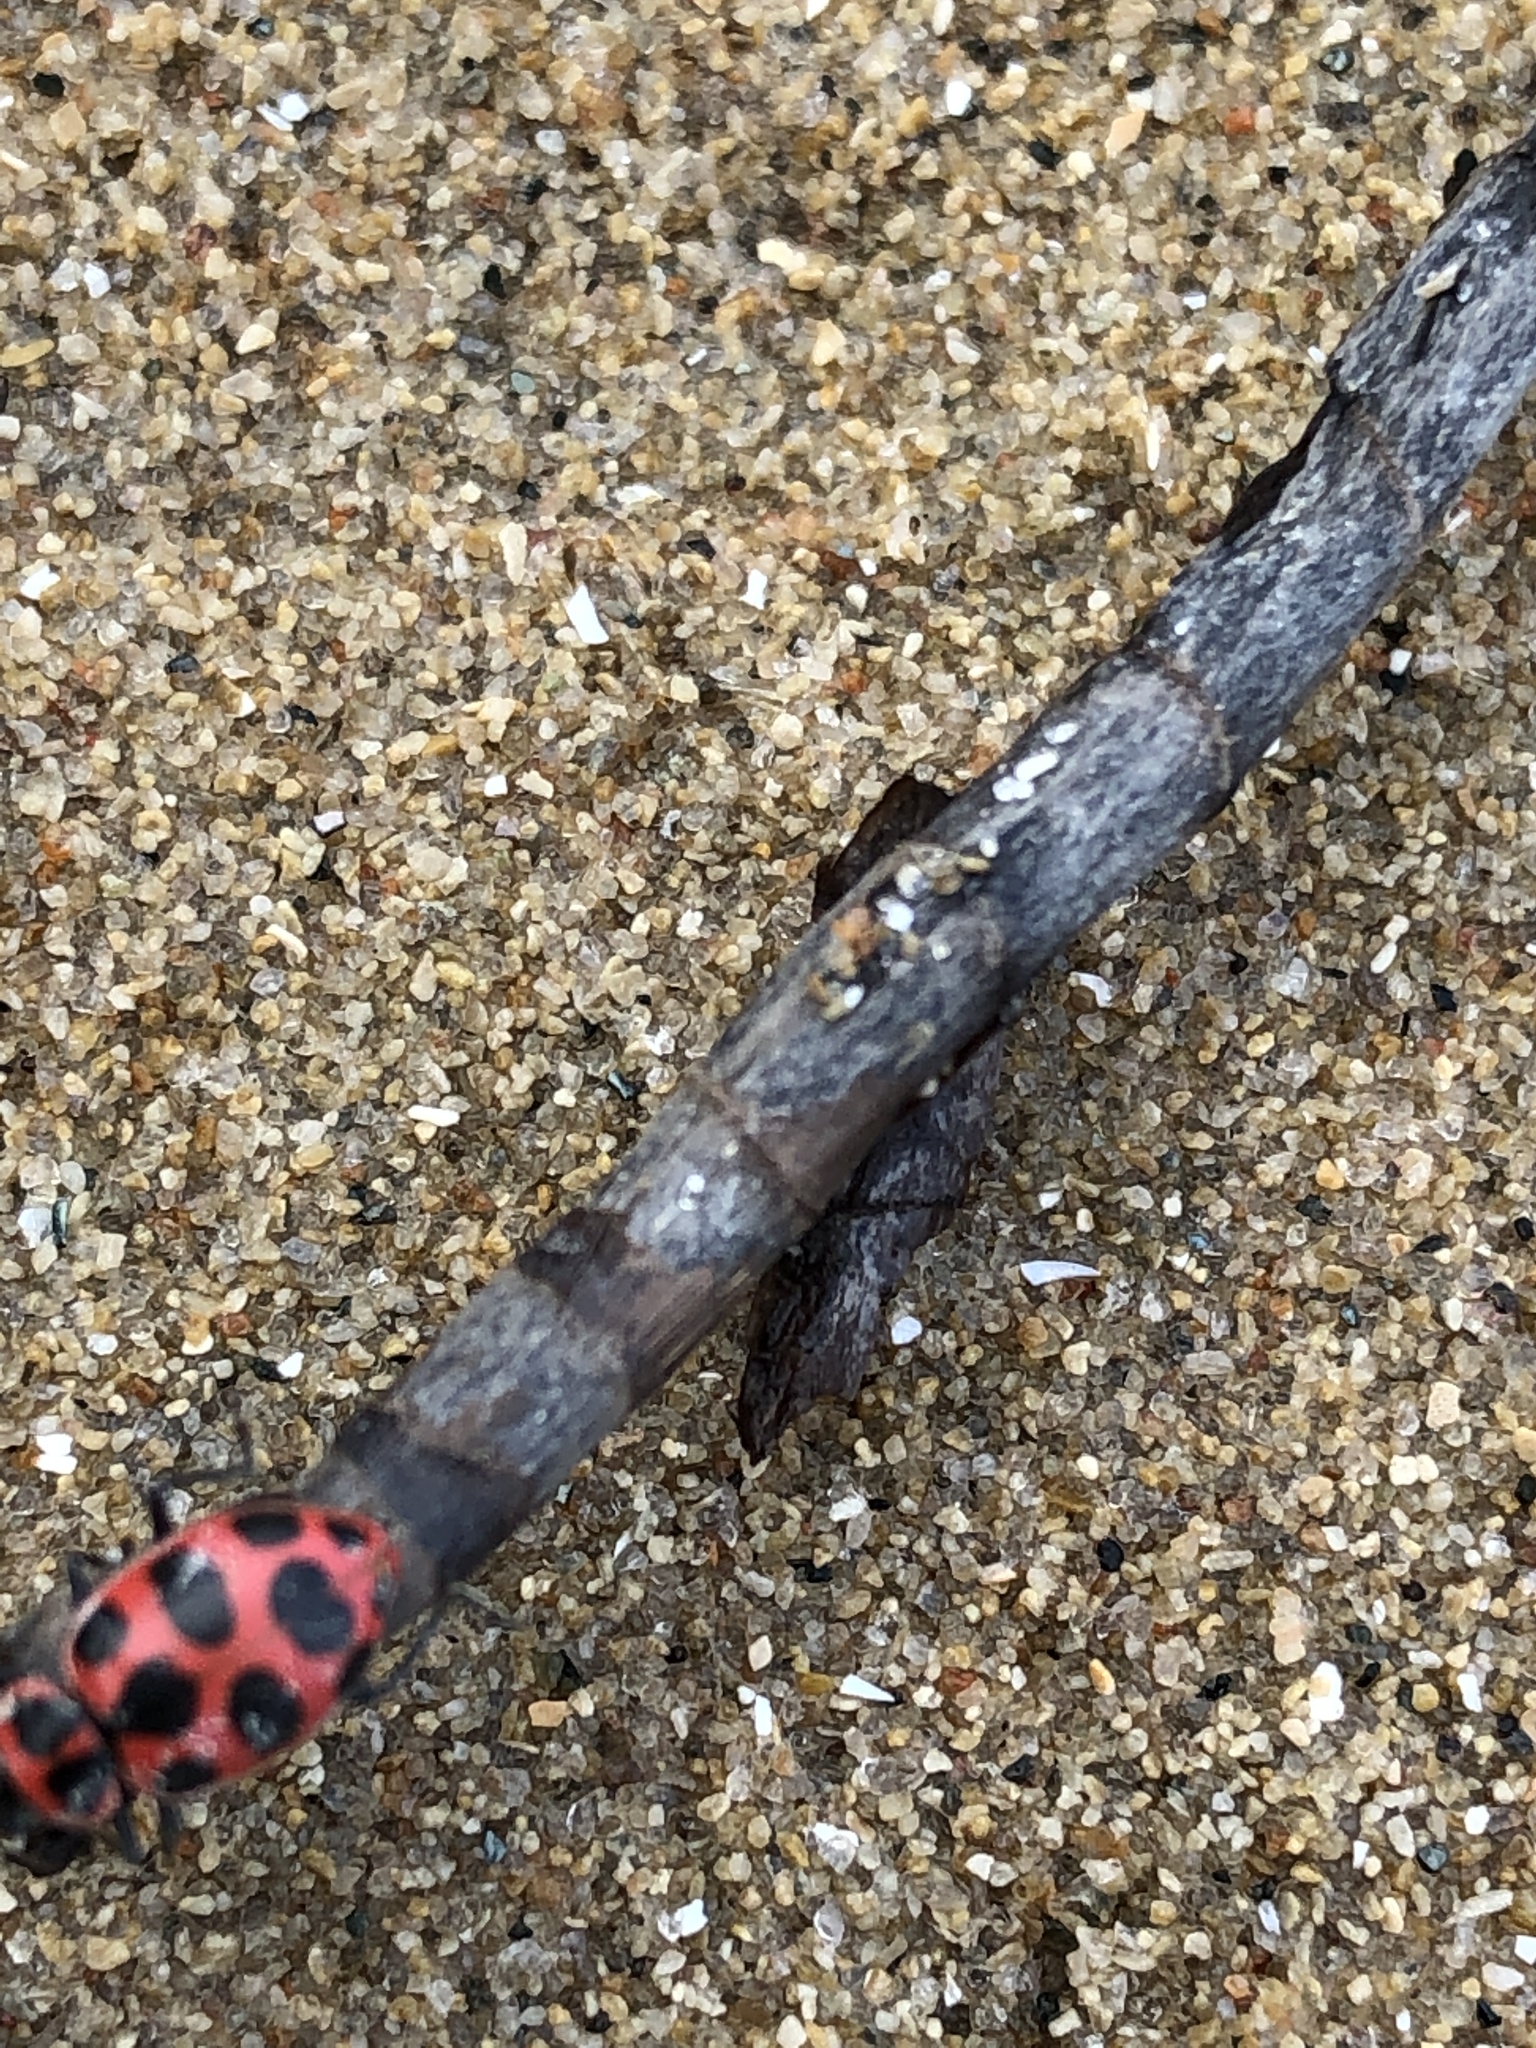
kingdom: Animalia
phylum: Arthropoda
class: Insecta
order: Coleoptera
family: Coccinellidae
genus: Coleomegilla
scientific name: Coleomegilla maculata
